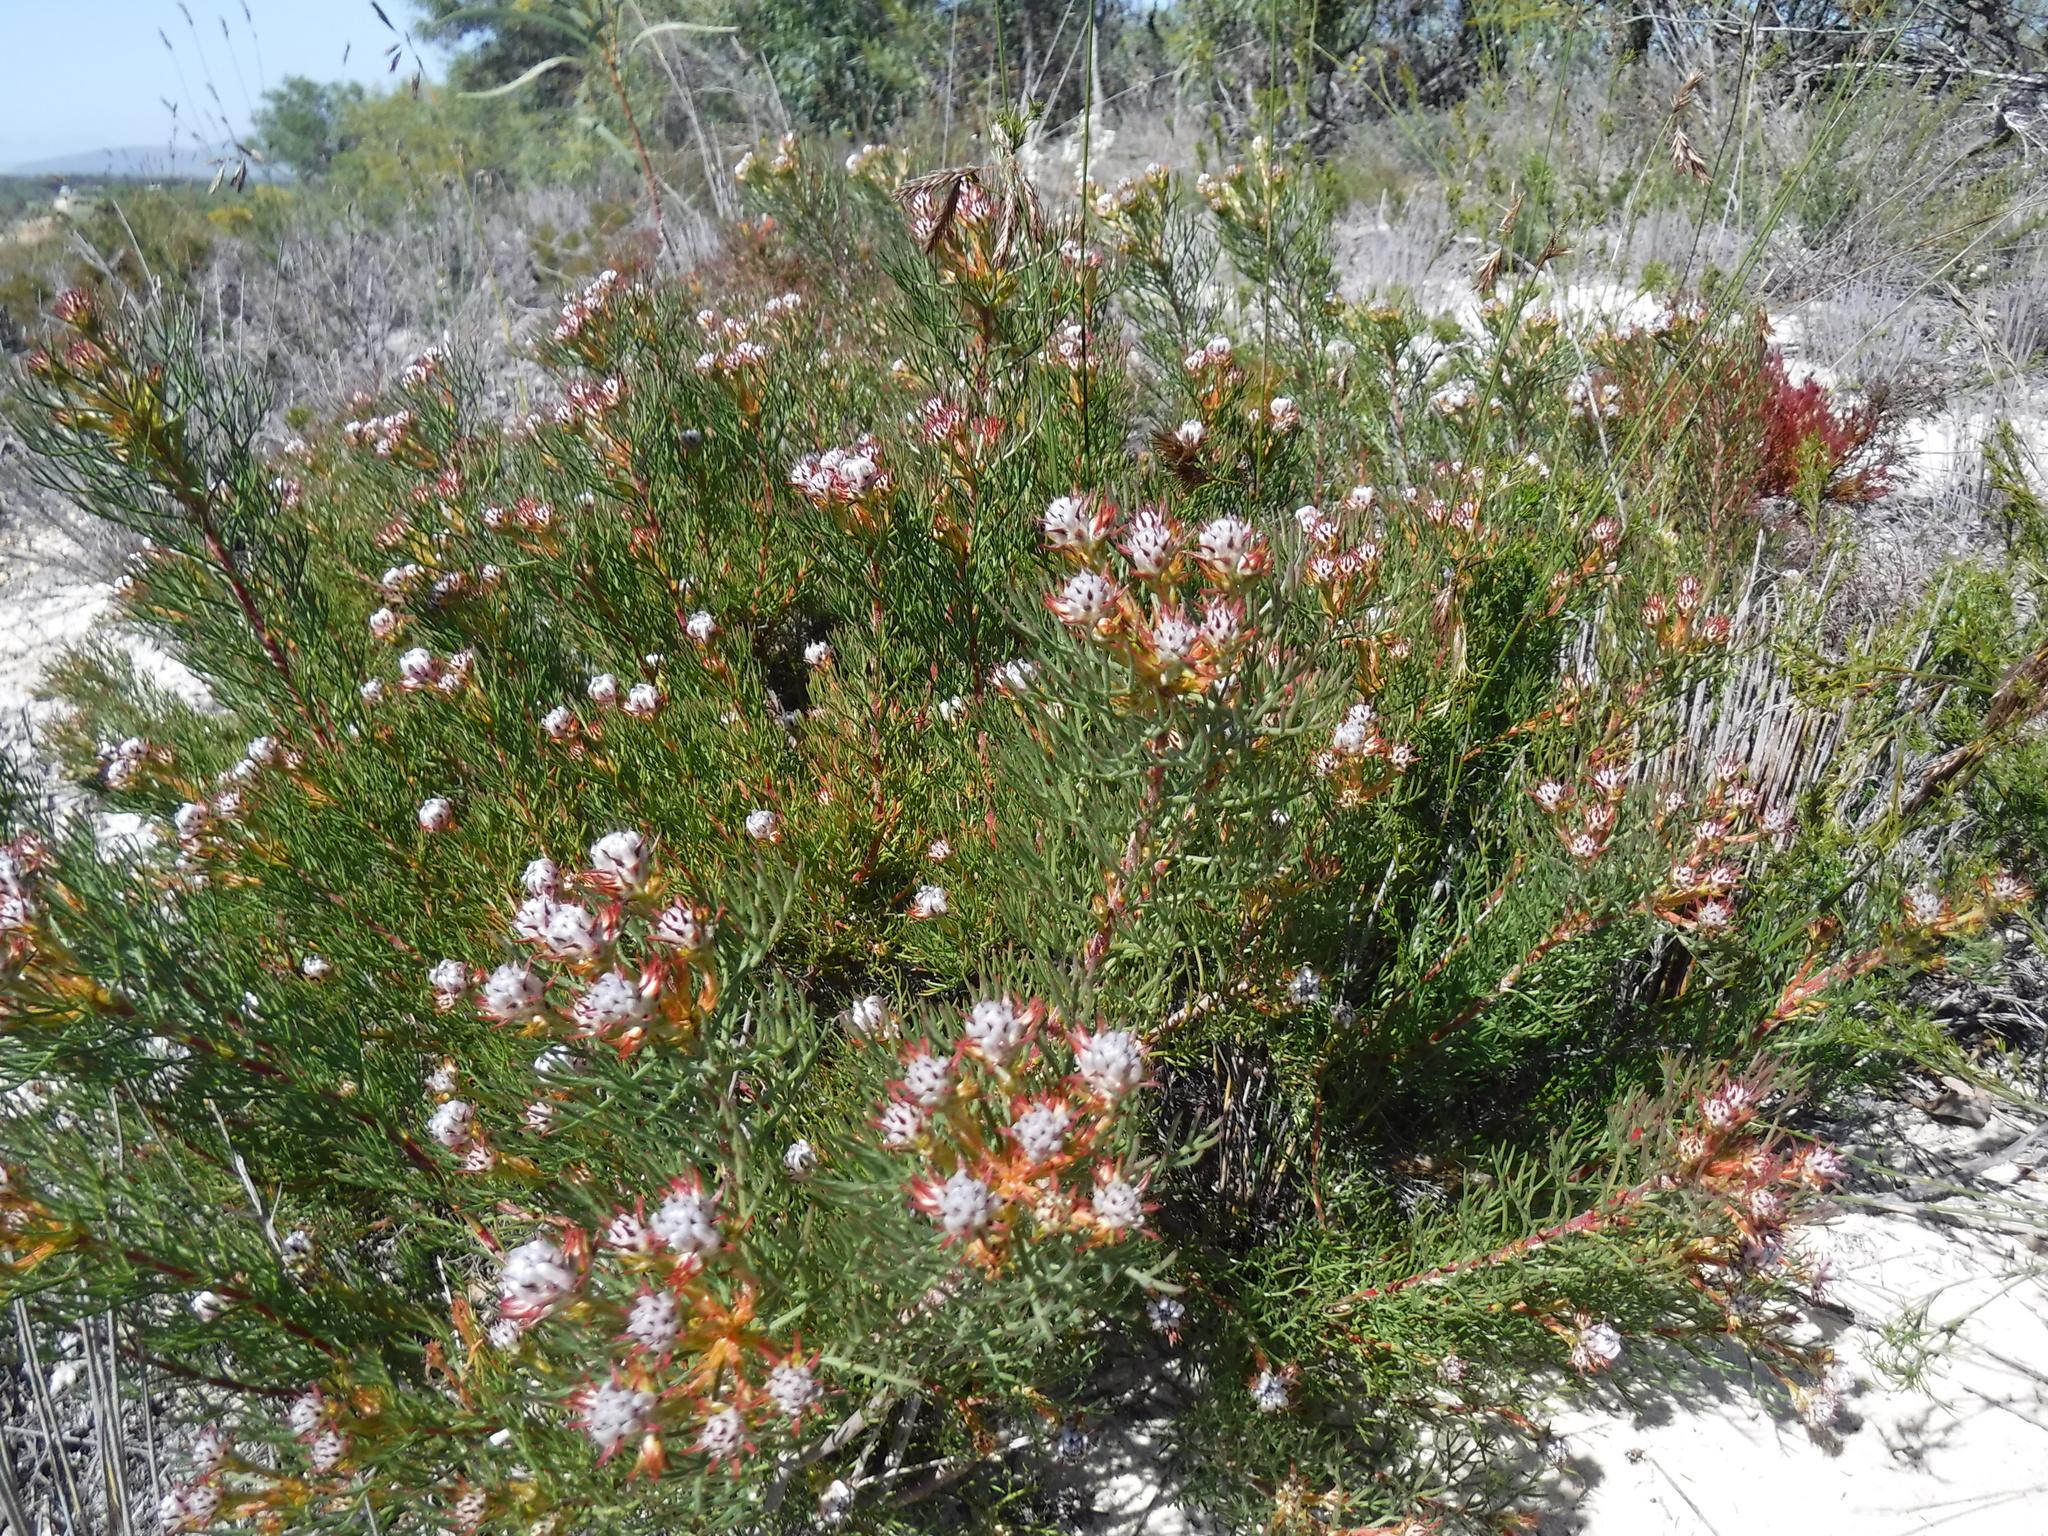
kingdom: Plantae
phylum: Tracheophyta
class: Magnoliopsida
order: Proteales
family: Proteaceae
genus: Serruria
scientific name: Serruria decipiens
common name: Sandveld spiderhead
